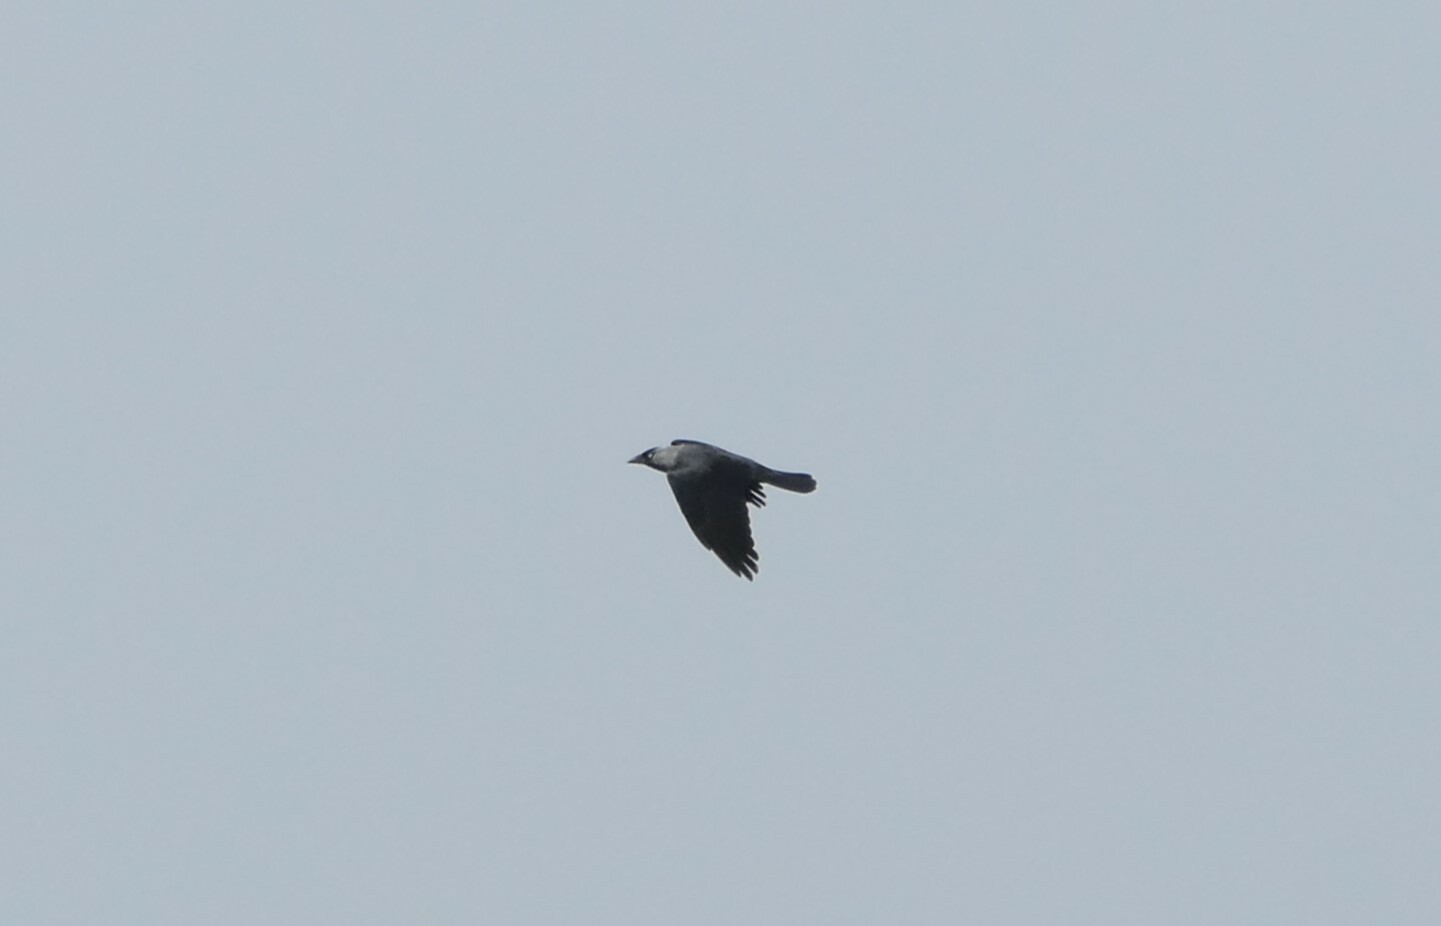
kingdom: Animalia
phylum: Chordata
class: Aves
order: Passeriformes
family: Corvidae
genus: Coloeus
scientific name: Coloeus monedula
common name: Western jackdaw
